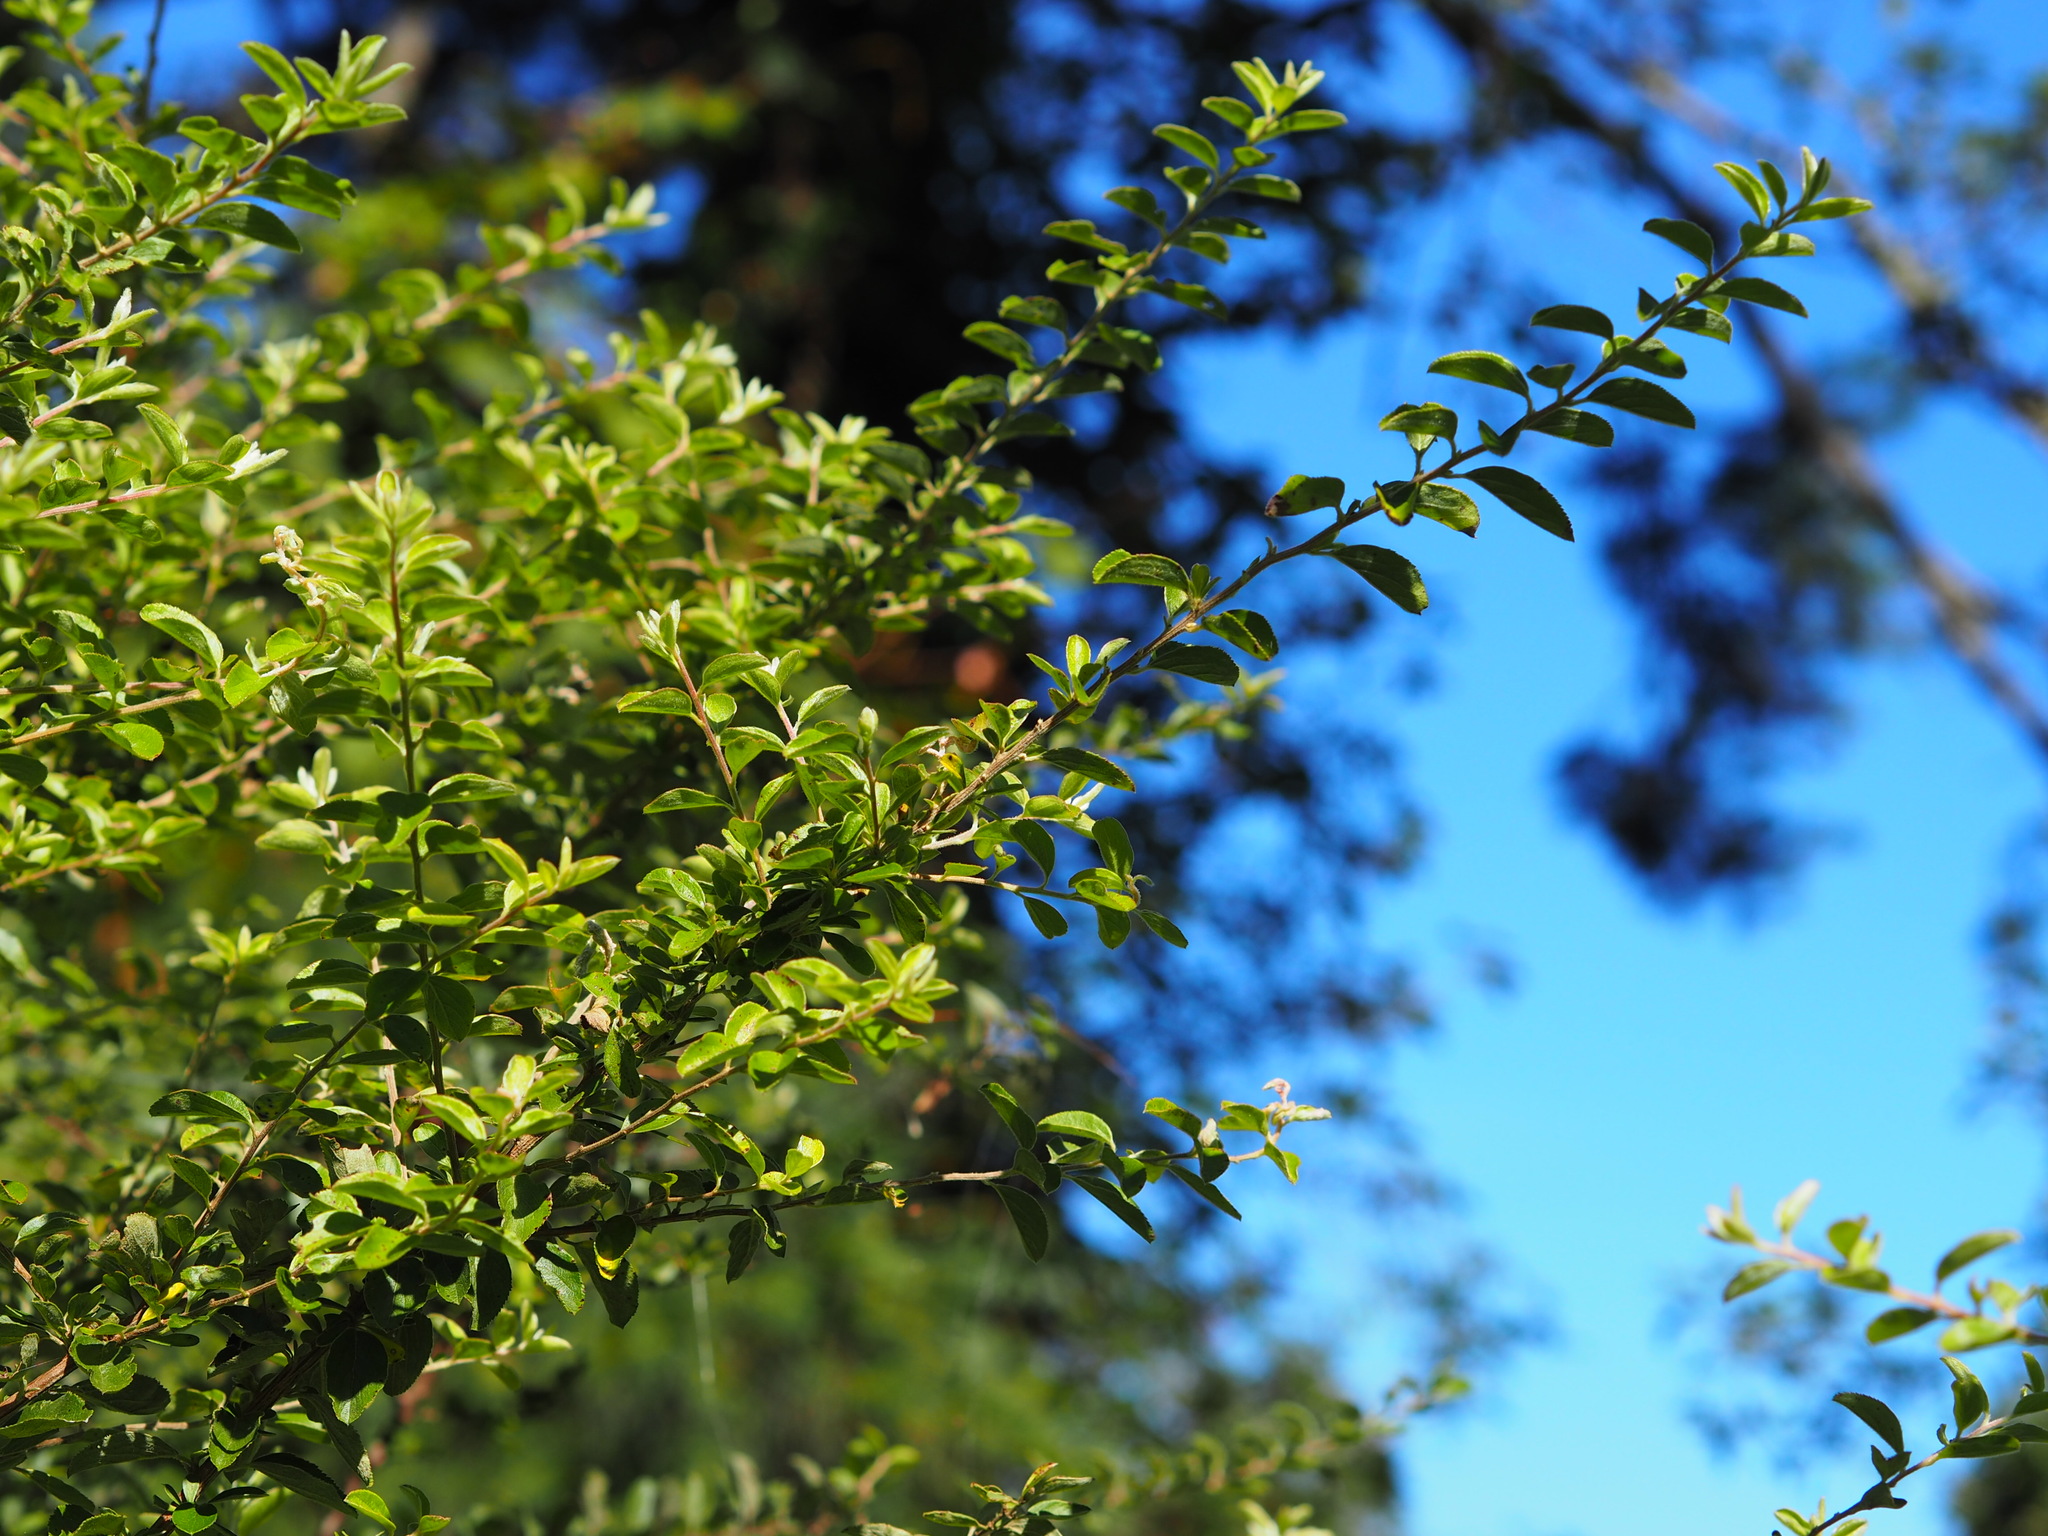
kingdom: Plantae
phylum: Tracheophyta
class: Magnoliopsida
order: Rosales
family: Rosaceae
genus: Spiraea
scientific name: Spiraea prunifolia
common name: Bridal-wreath spiraea
